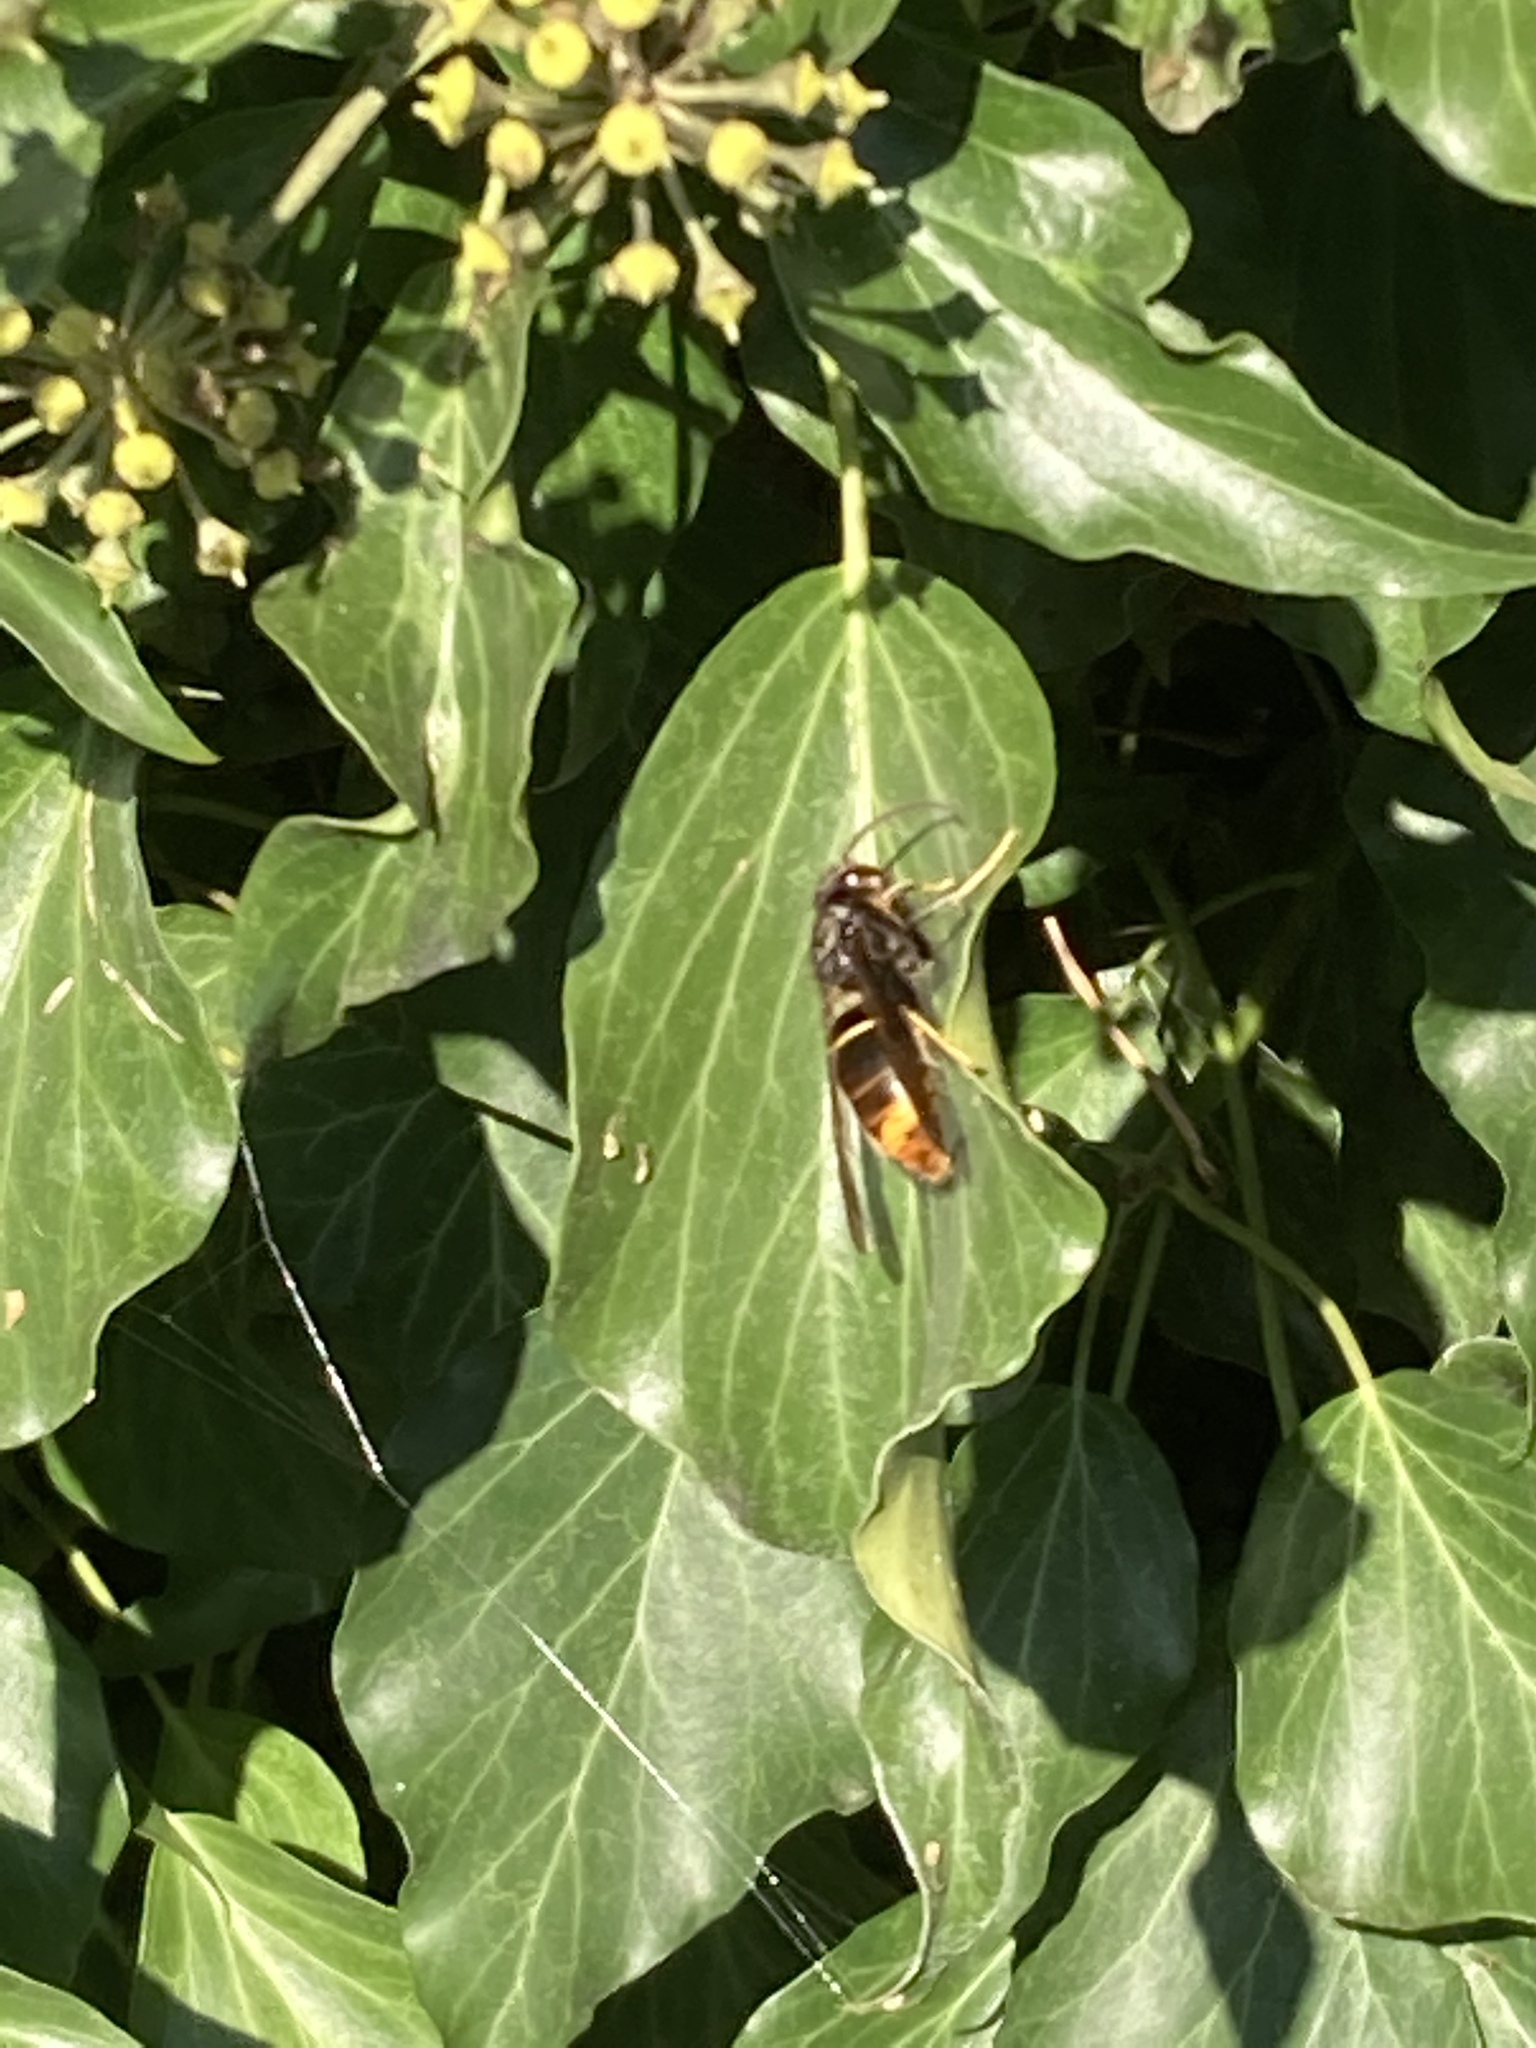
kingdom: Animalia
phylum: Arthropoda
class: Insecta
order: Hymenoptera
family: Vespidae
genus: Vespa
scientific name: Vespa velutina
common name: Asian hornet
